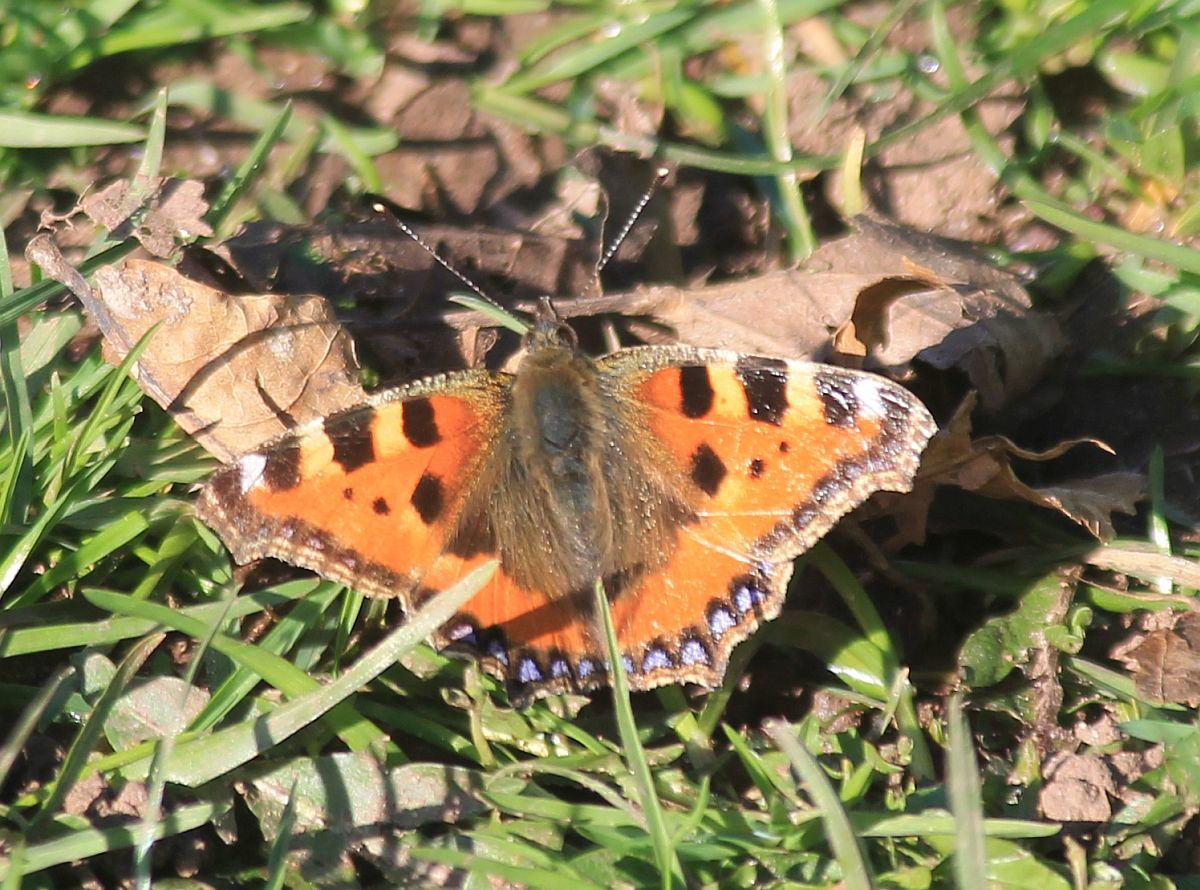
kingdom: Animalia
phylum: Arthropoda
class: Insecta
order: Lepidoptera
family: Nymphalidae
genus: Aglais
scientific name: Aglais urticae
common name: Small tortoiseshell
